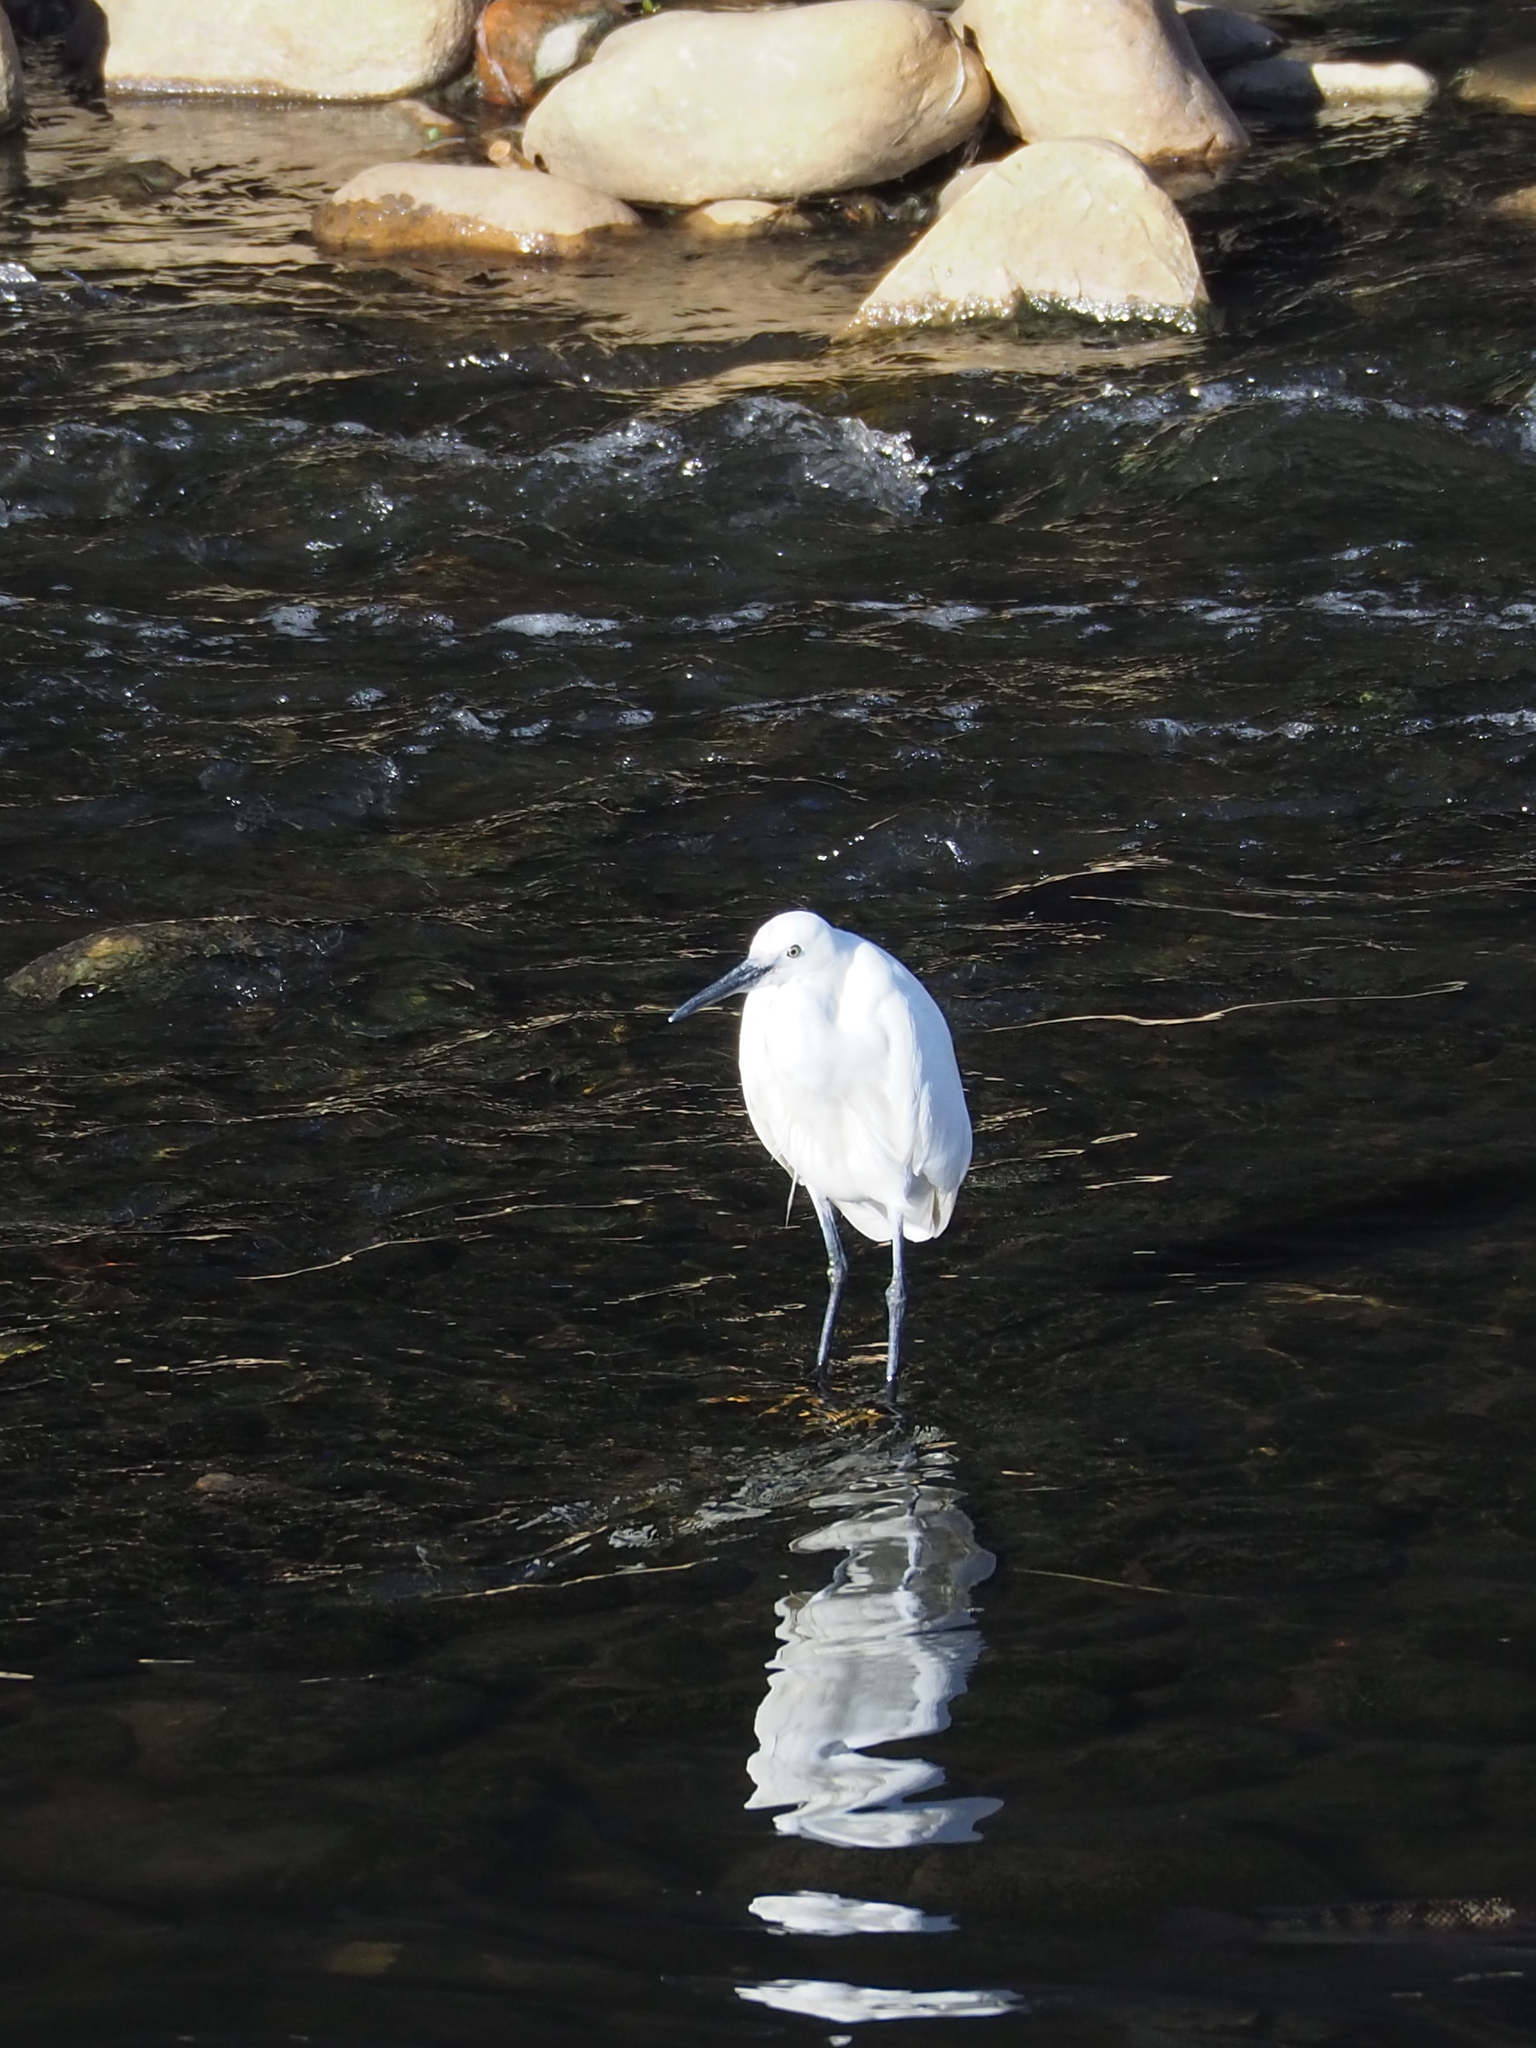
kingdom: Animalia
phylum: Chordata
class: Aves
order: Pelecaniformes
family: Ardeidae
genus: Egretta
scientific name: Egretta garzetta
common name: Little egret
